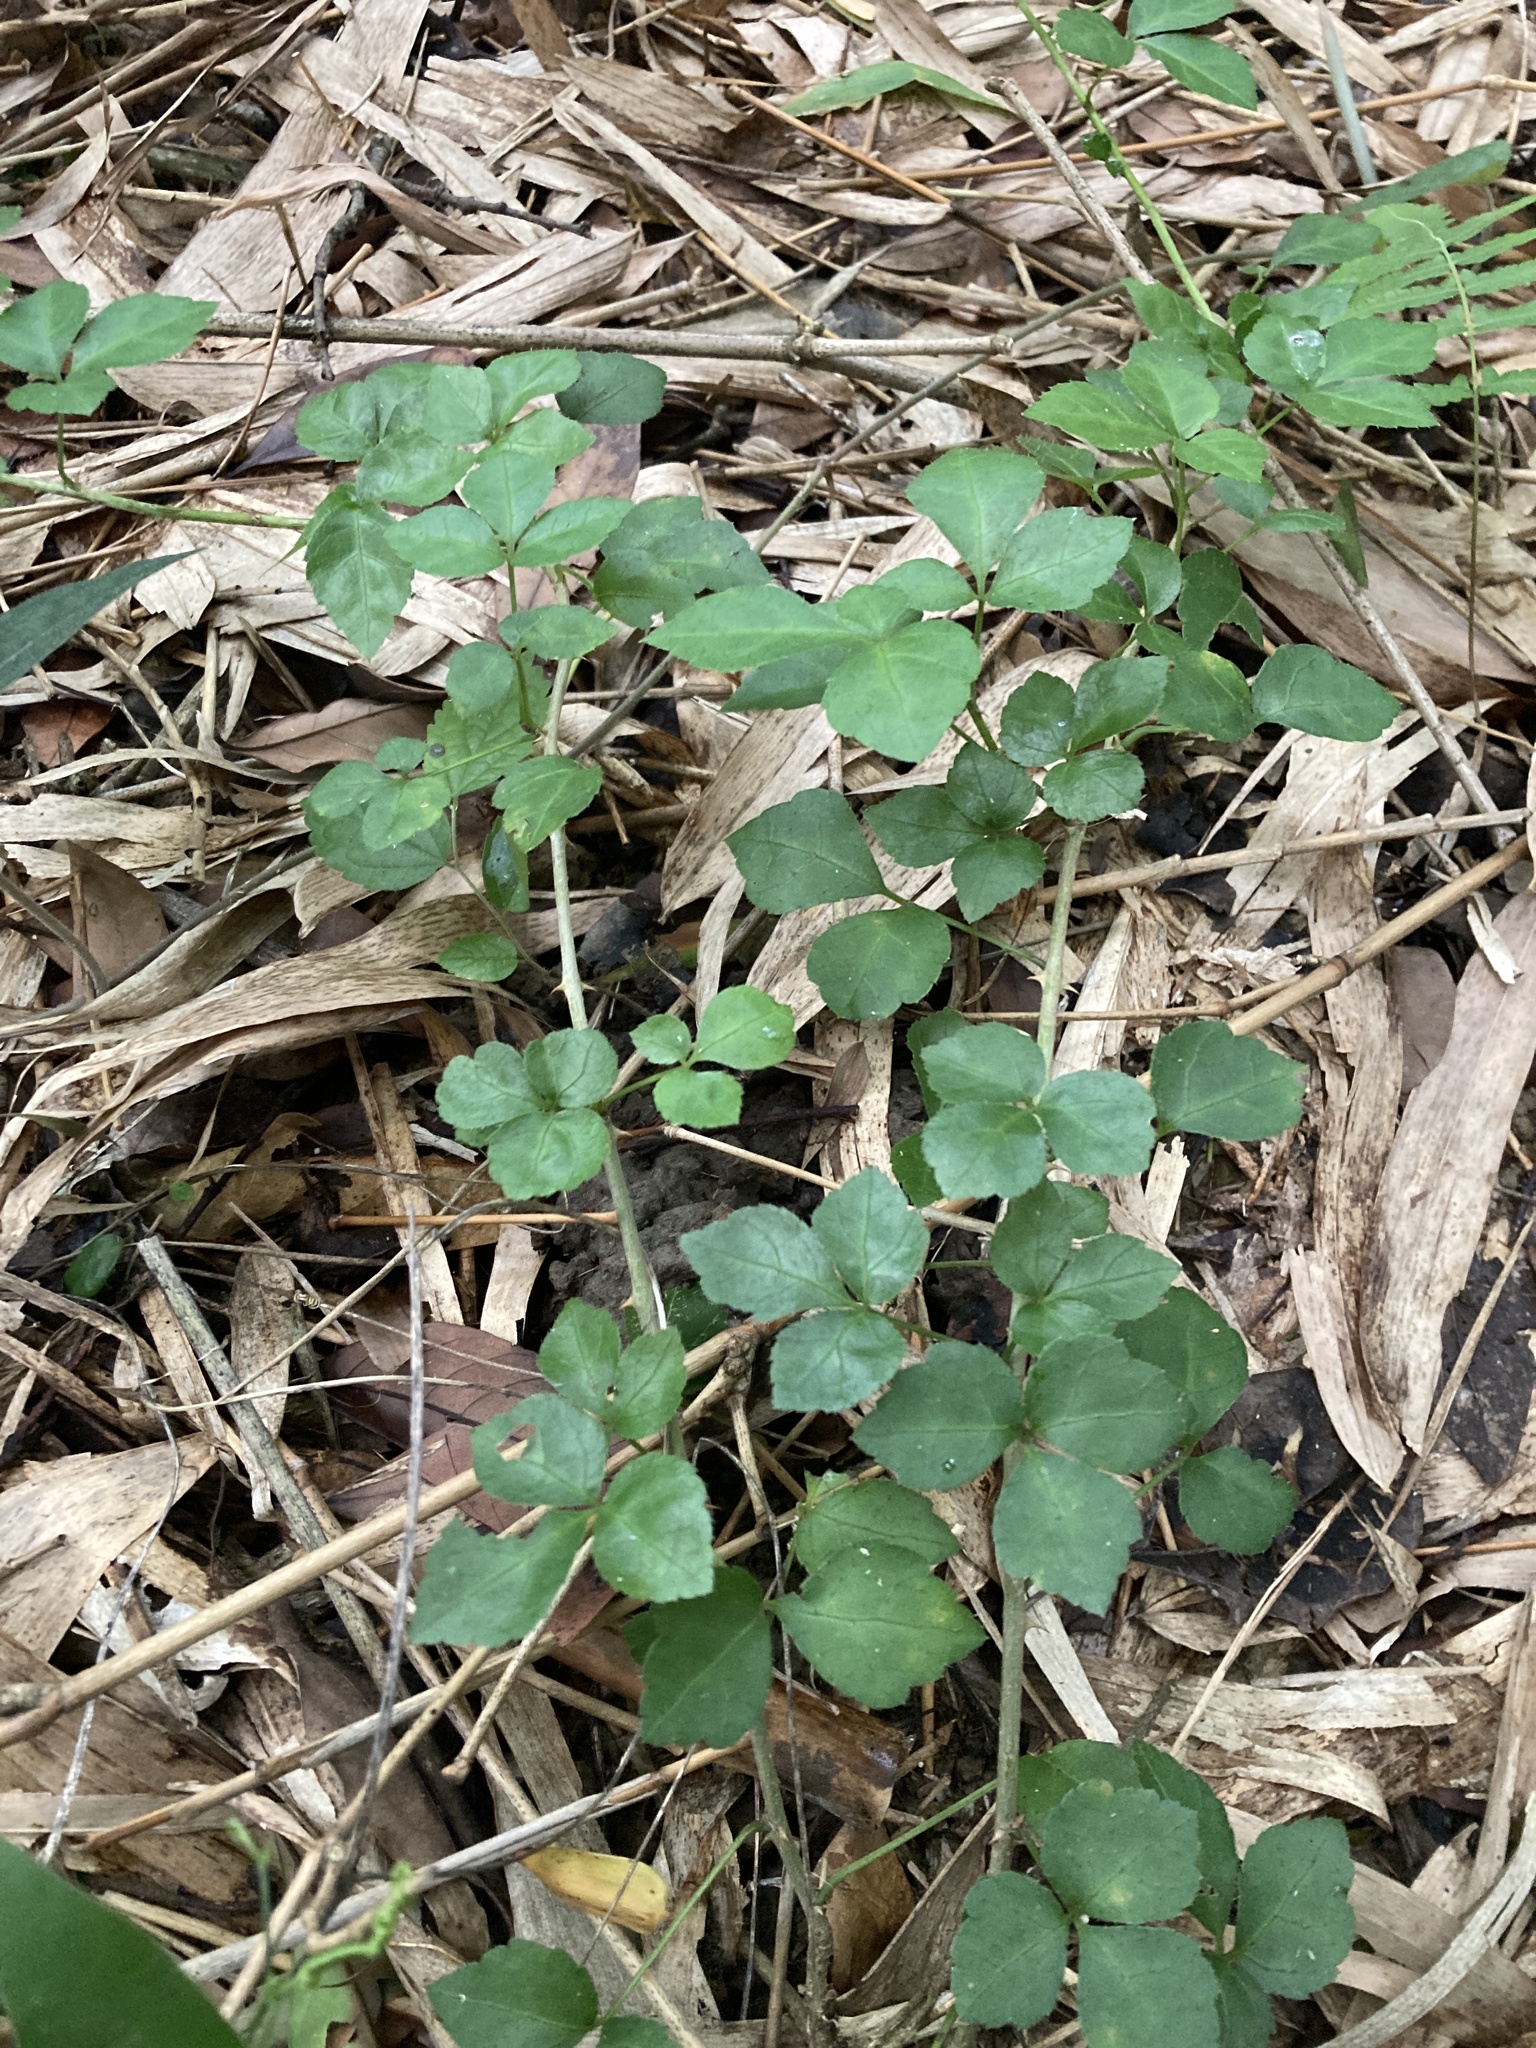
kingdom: Plantae
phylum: Tracheophyta
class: Magnoliopsida
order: Apiales
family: Araliaceae
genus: Eleutherococcus
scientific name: Eleutherococcus trifoliatus
